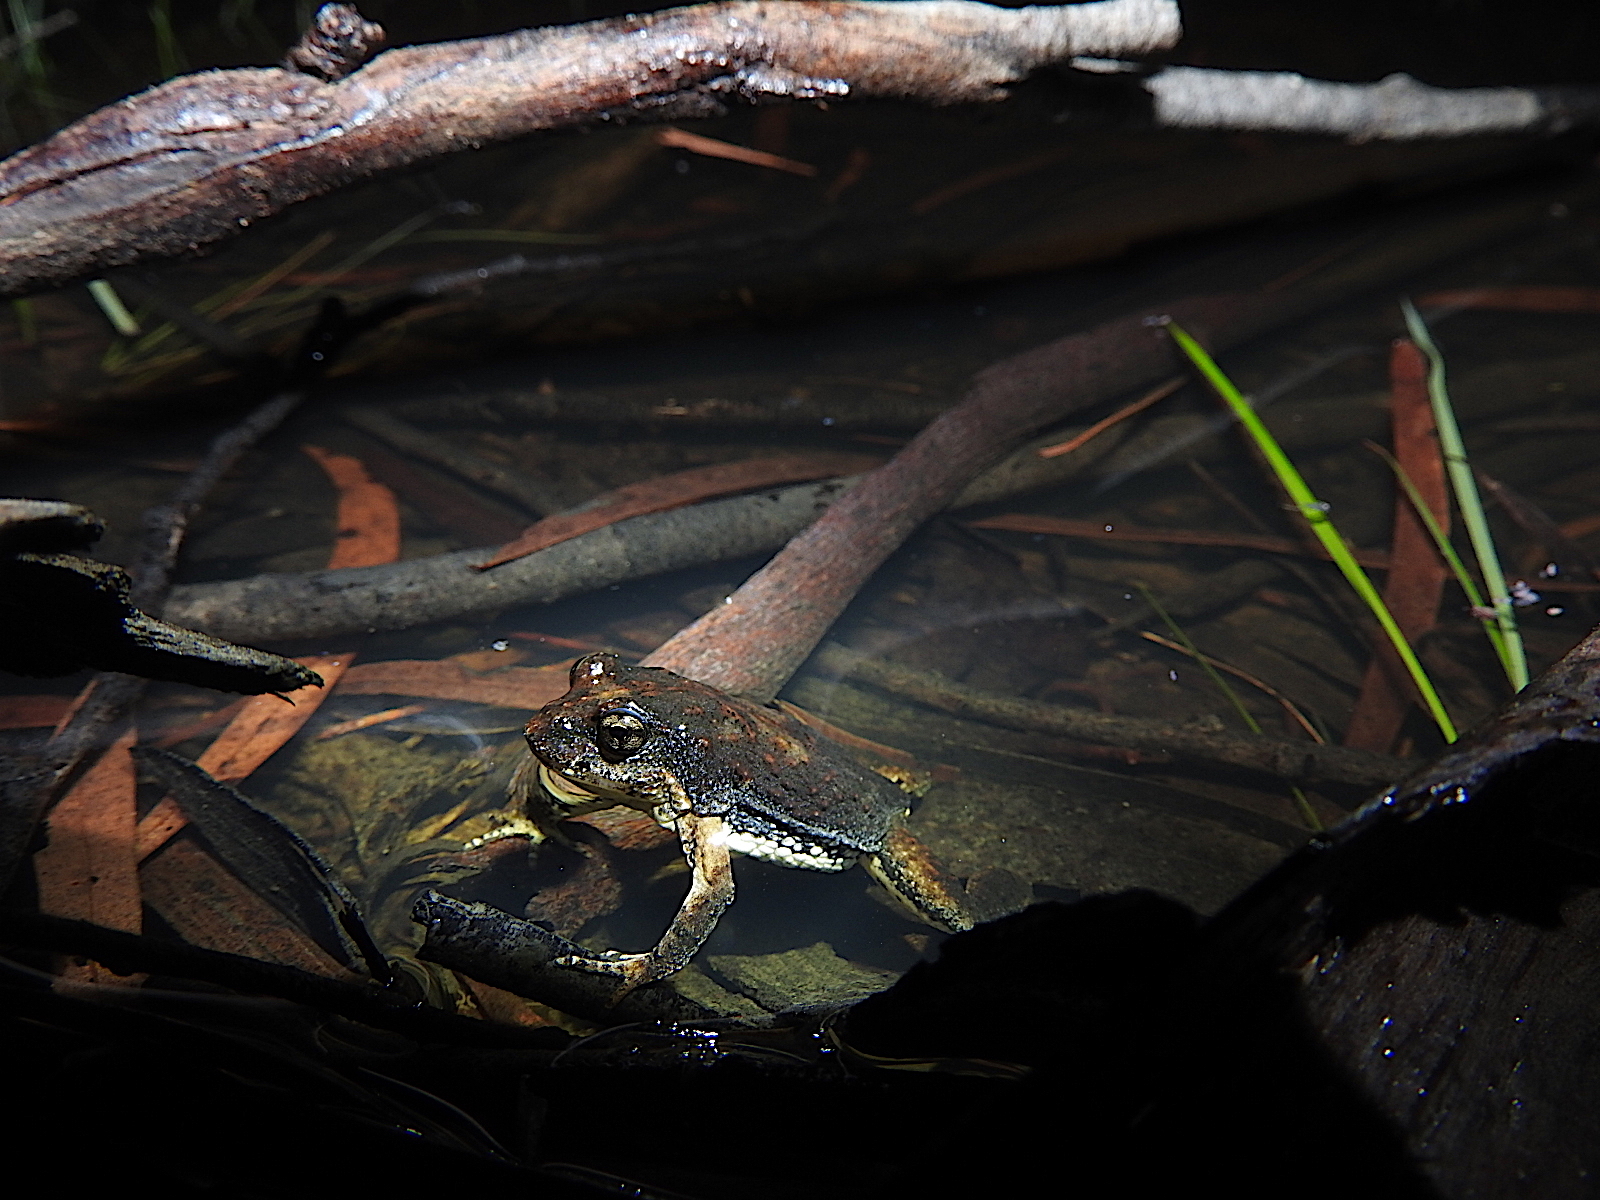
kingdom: Animalia
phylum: Chordata
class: Amphibia
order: Anura
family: Myobatrachidae
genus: Crinia
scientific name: Crinia signifera
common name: Brown froglet
